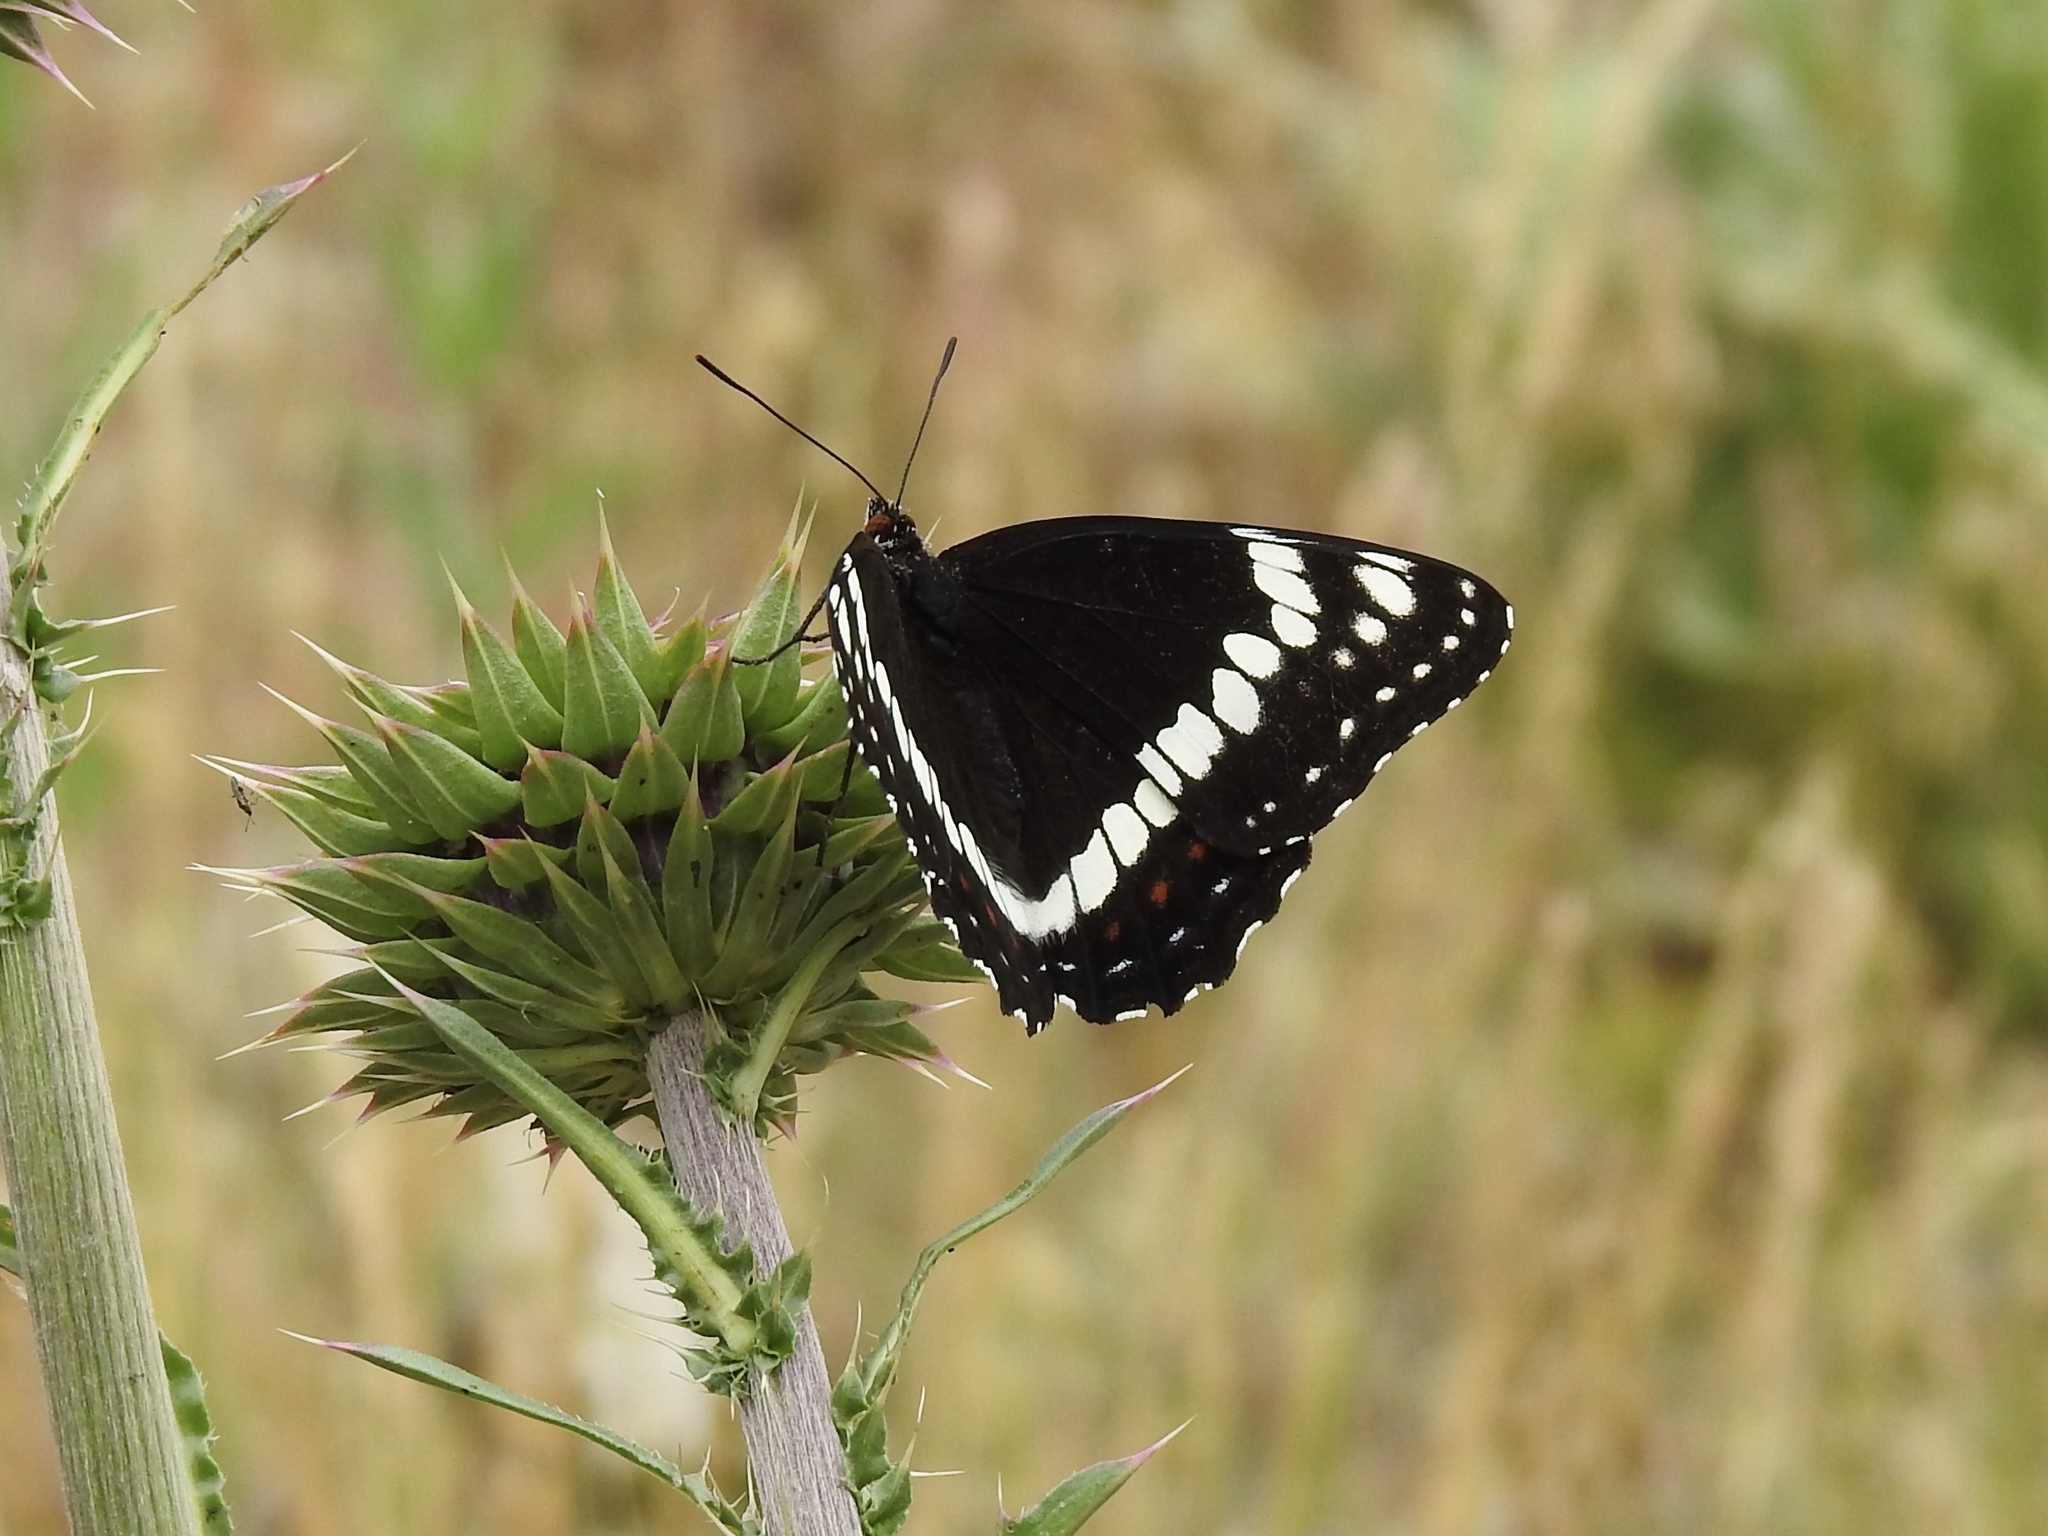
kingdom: Animalia
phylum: Arthropoda
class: Insecta
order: Lepidoptera
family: Nymphalidae
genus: Limenitis
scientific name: Limenitis weidemeyerii
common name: Weidemeyer's admiral
